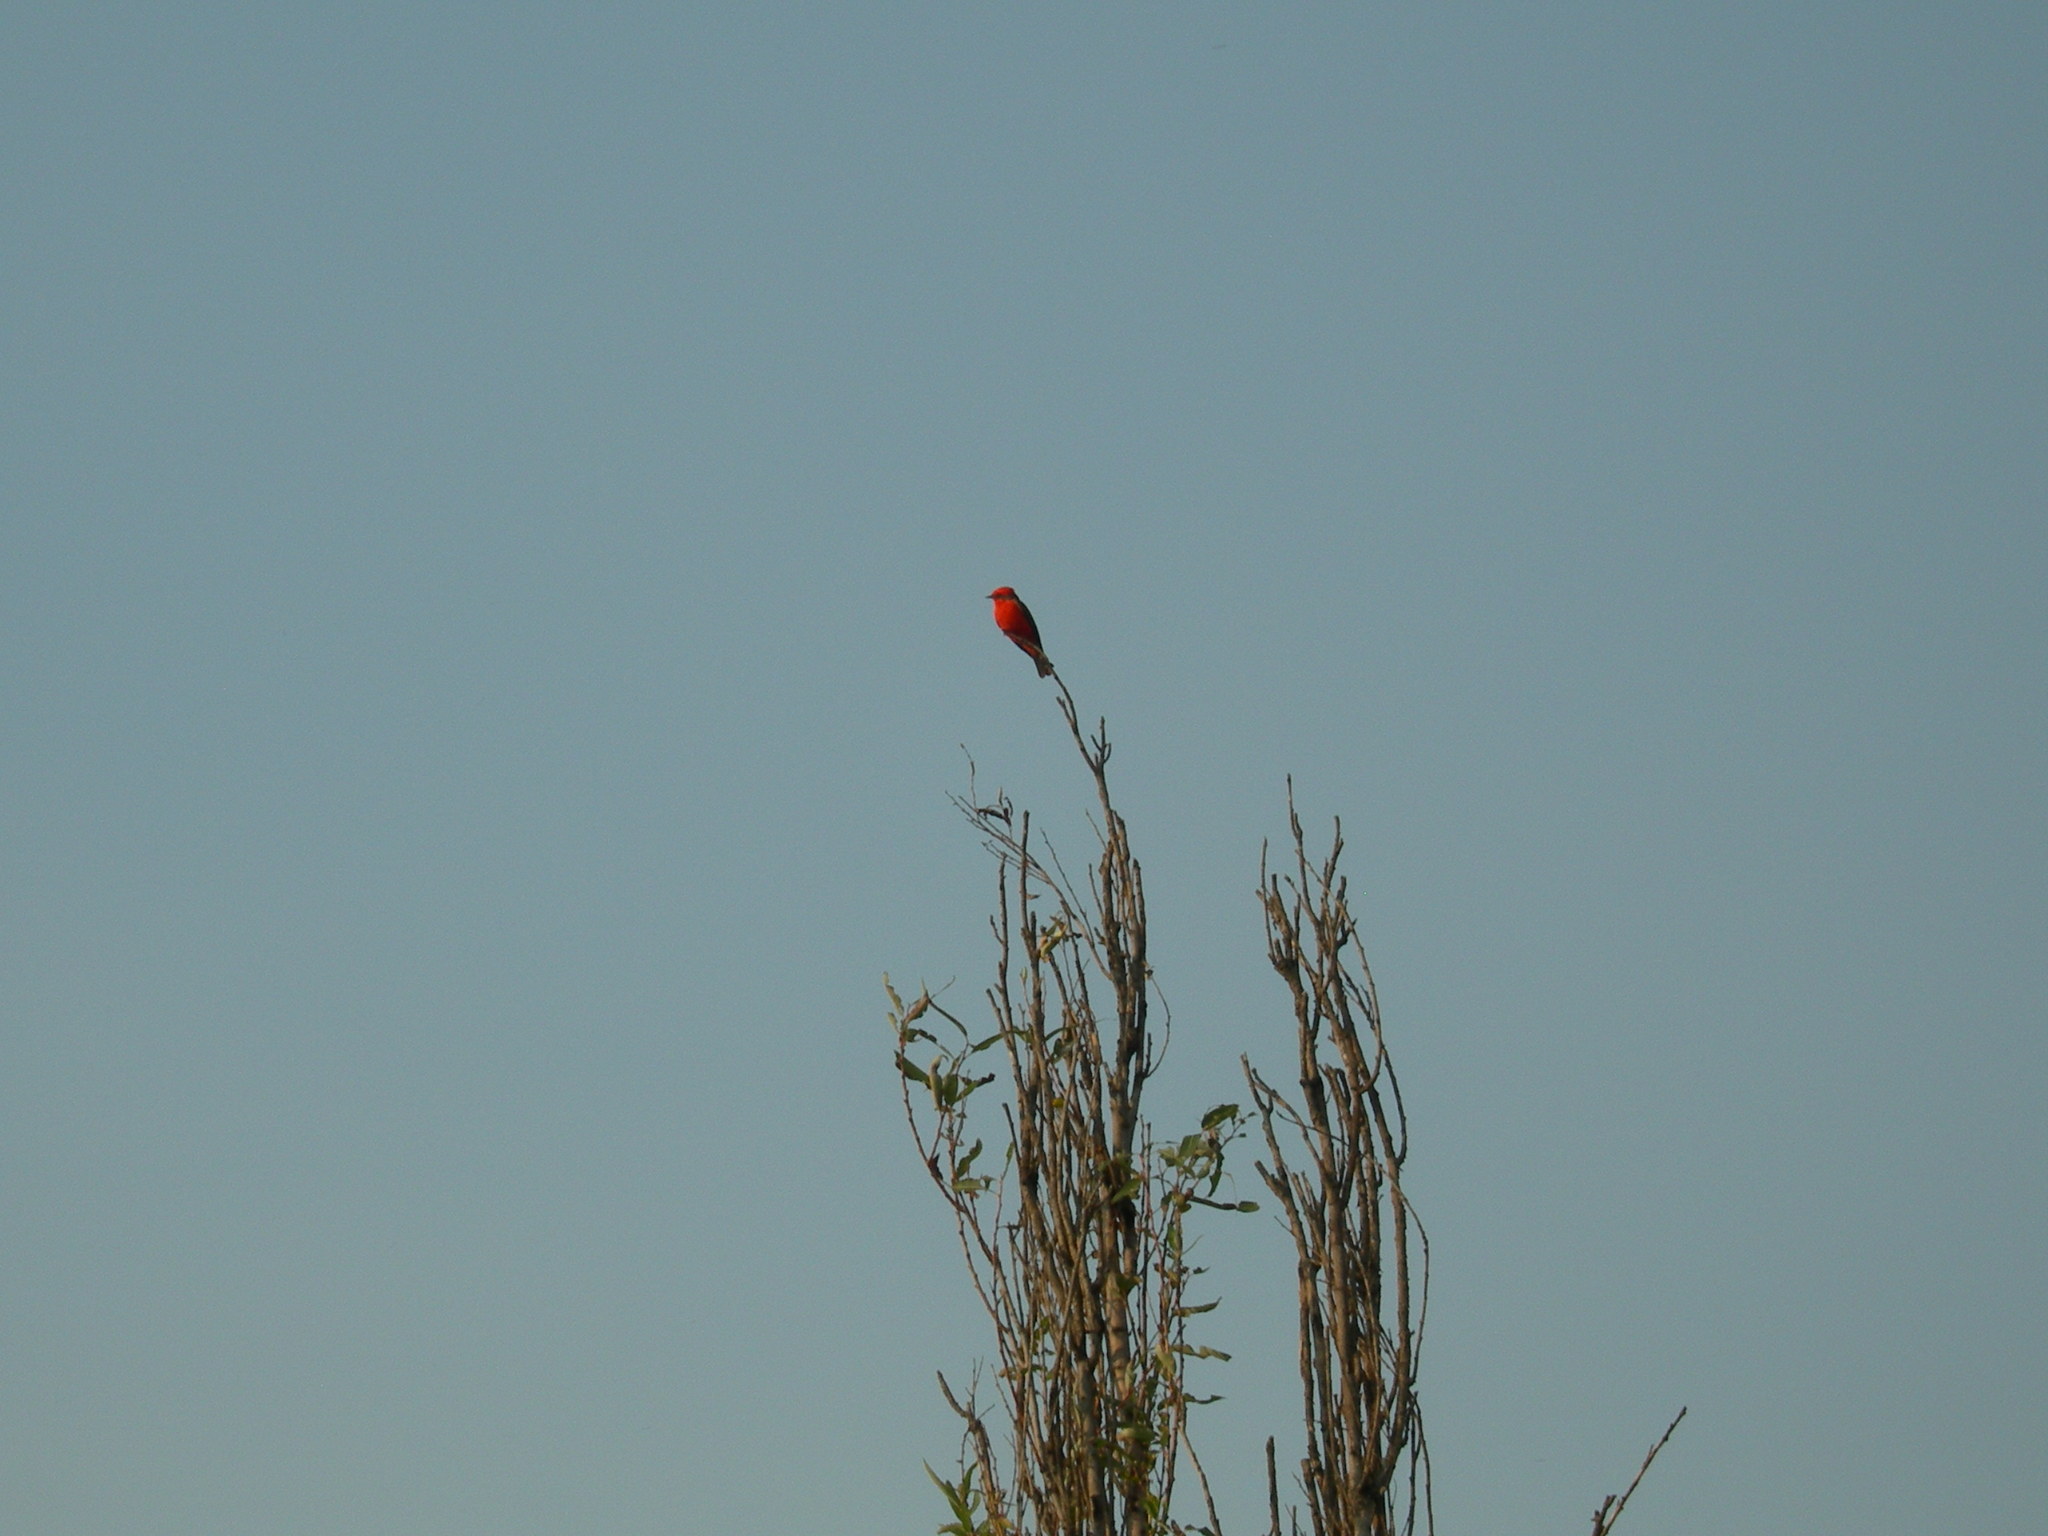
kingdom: Animalia
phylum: Chordata
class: Aves
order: Passeriformes
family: Tyrannidae
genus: Pyrocephalus
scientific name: Pyrocephalus rubinus
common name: Vermilion flycatcher
